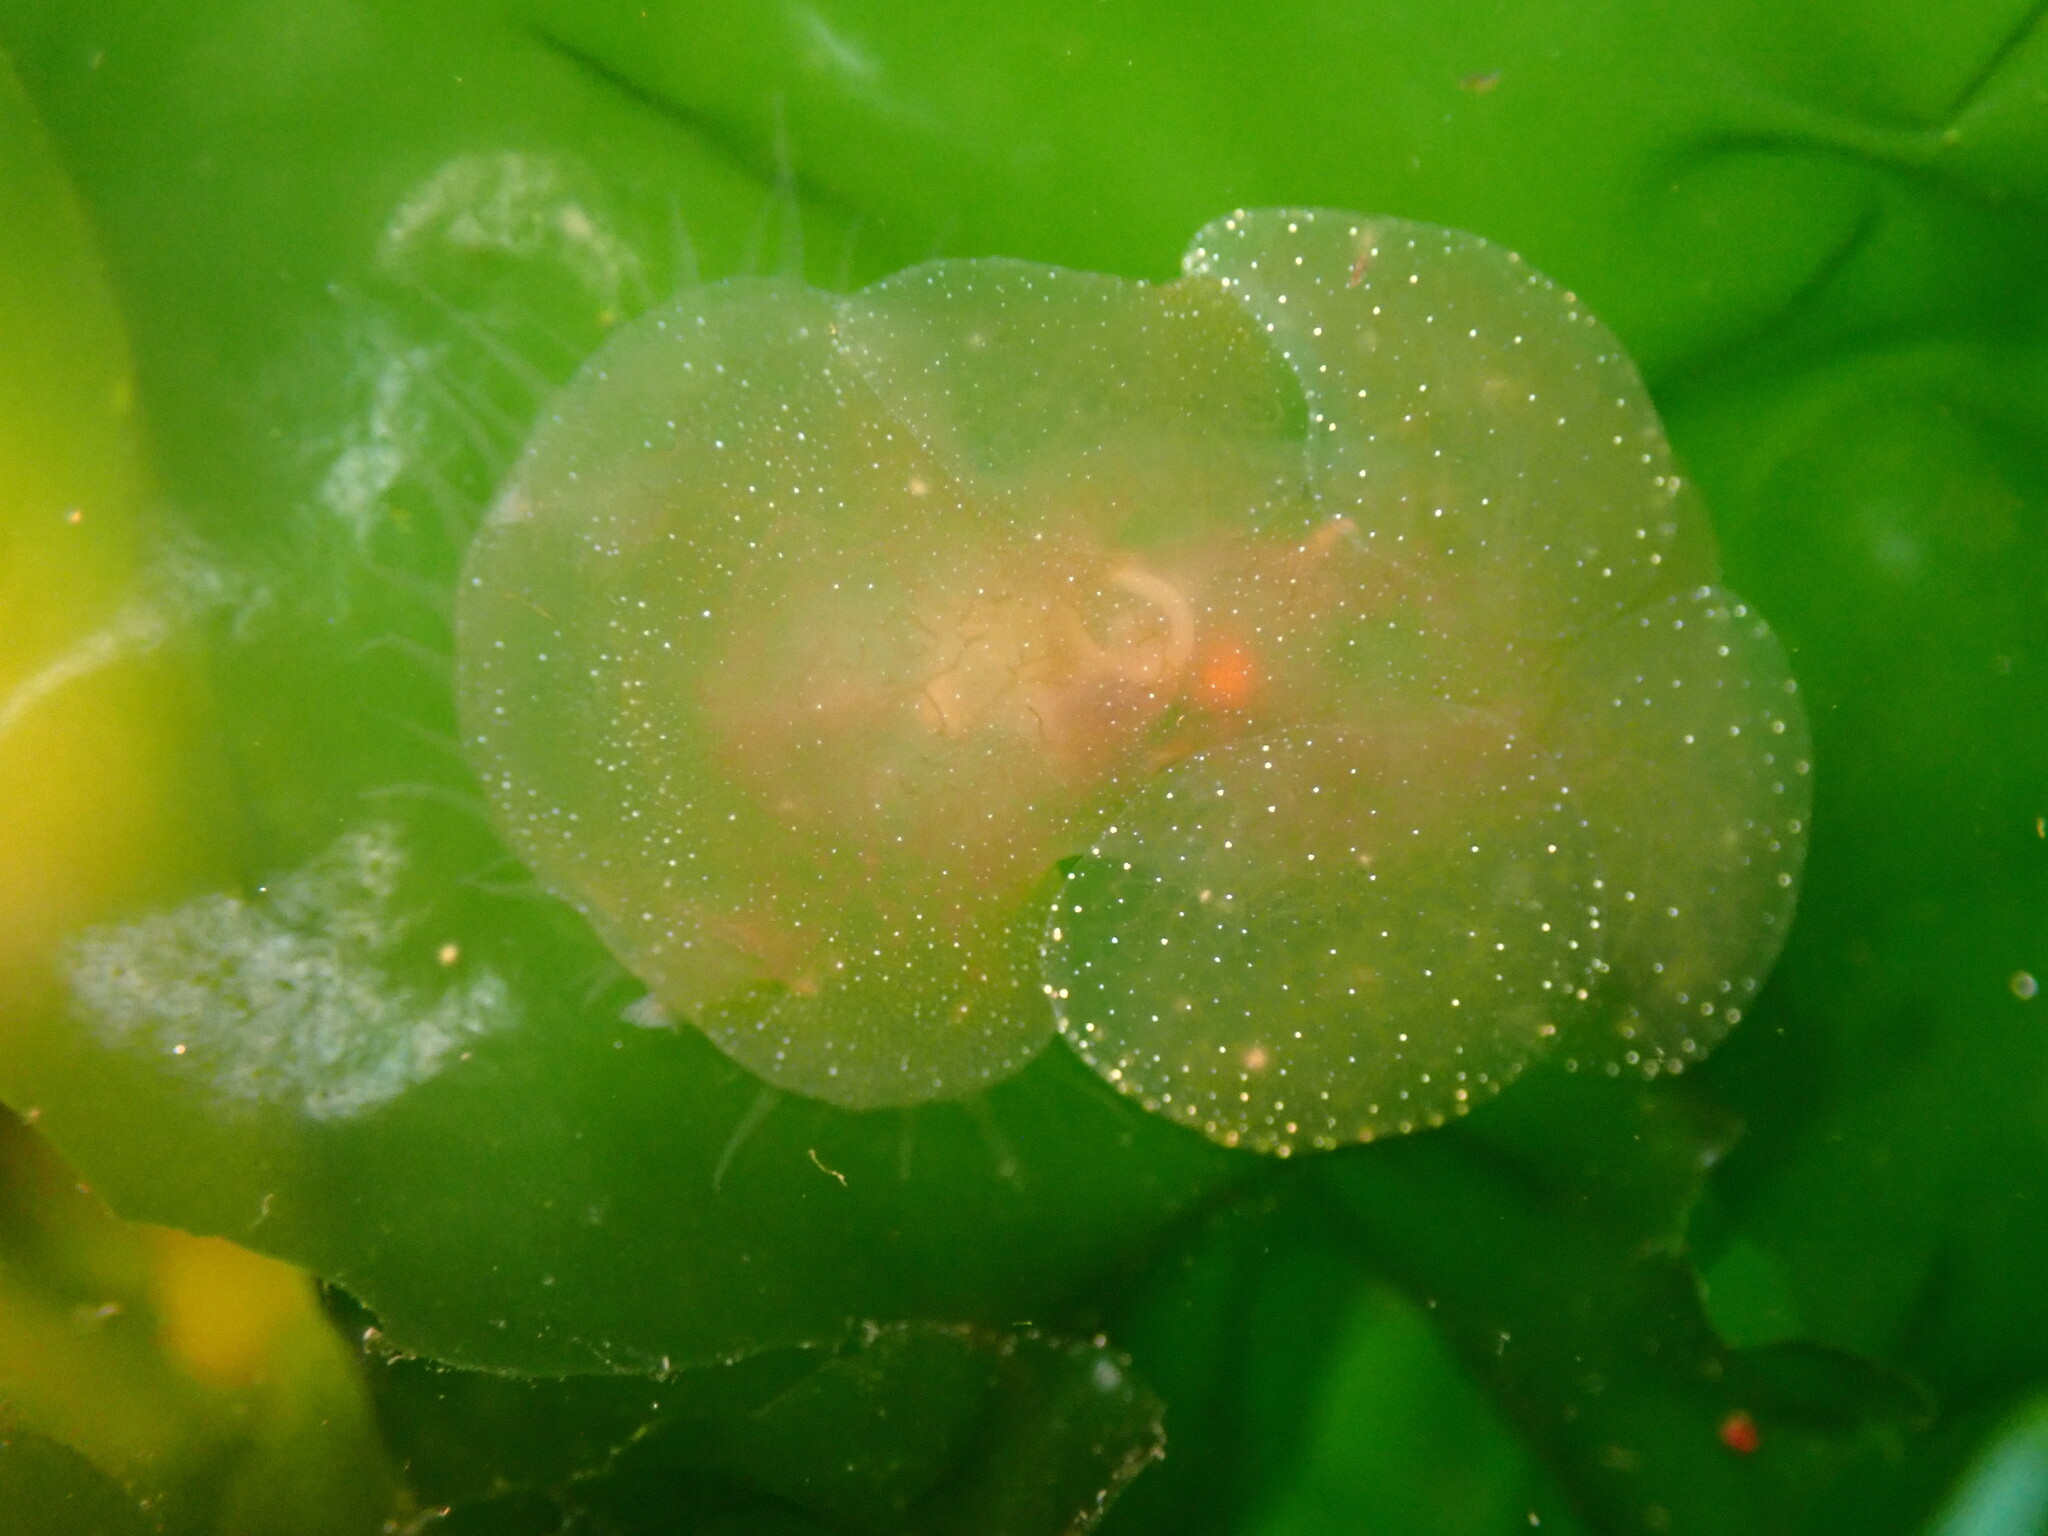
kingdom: Animalia
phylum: Mollusca
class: Gastropoda
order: Nudibranchia
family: Tethydidae
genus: Melibe
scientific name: Melibe leonina
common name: Lion nudibranch
